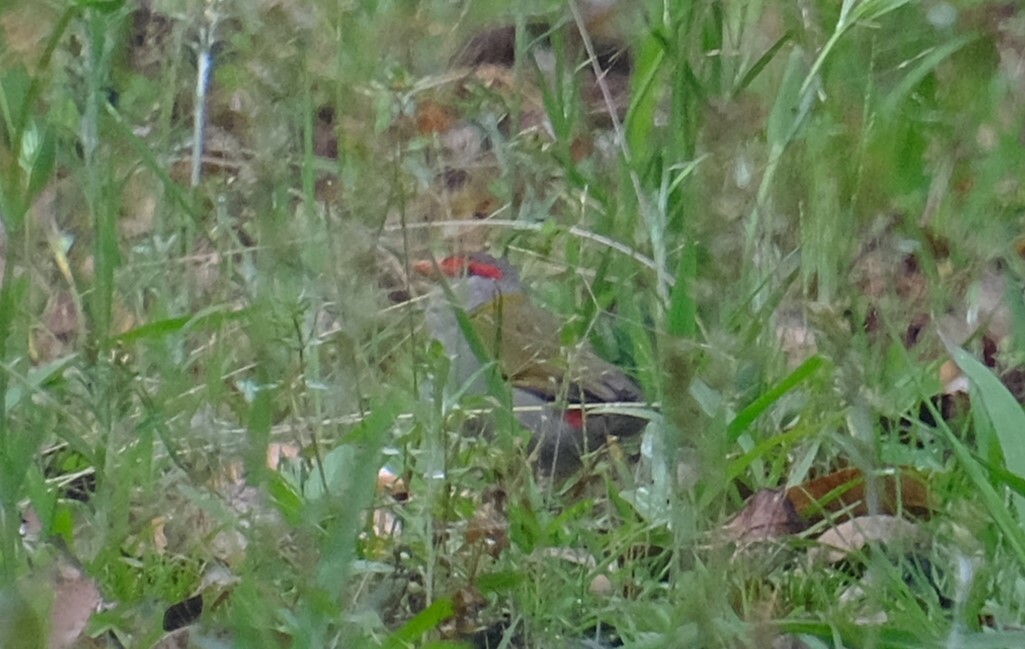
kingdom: Animalia
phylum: Chordata
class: Aves
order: Passeriformes
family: Estrildidae
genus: Neochmia
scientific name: Neochmia temporalis
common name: Red-browed finch
